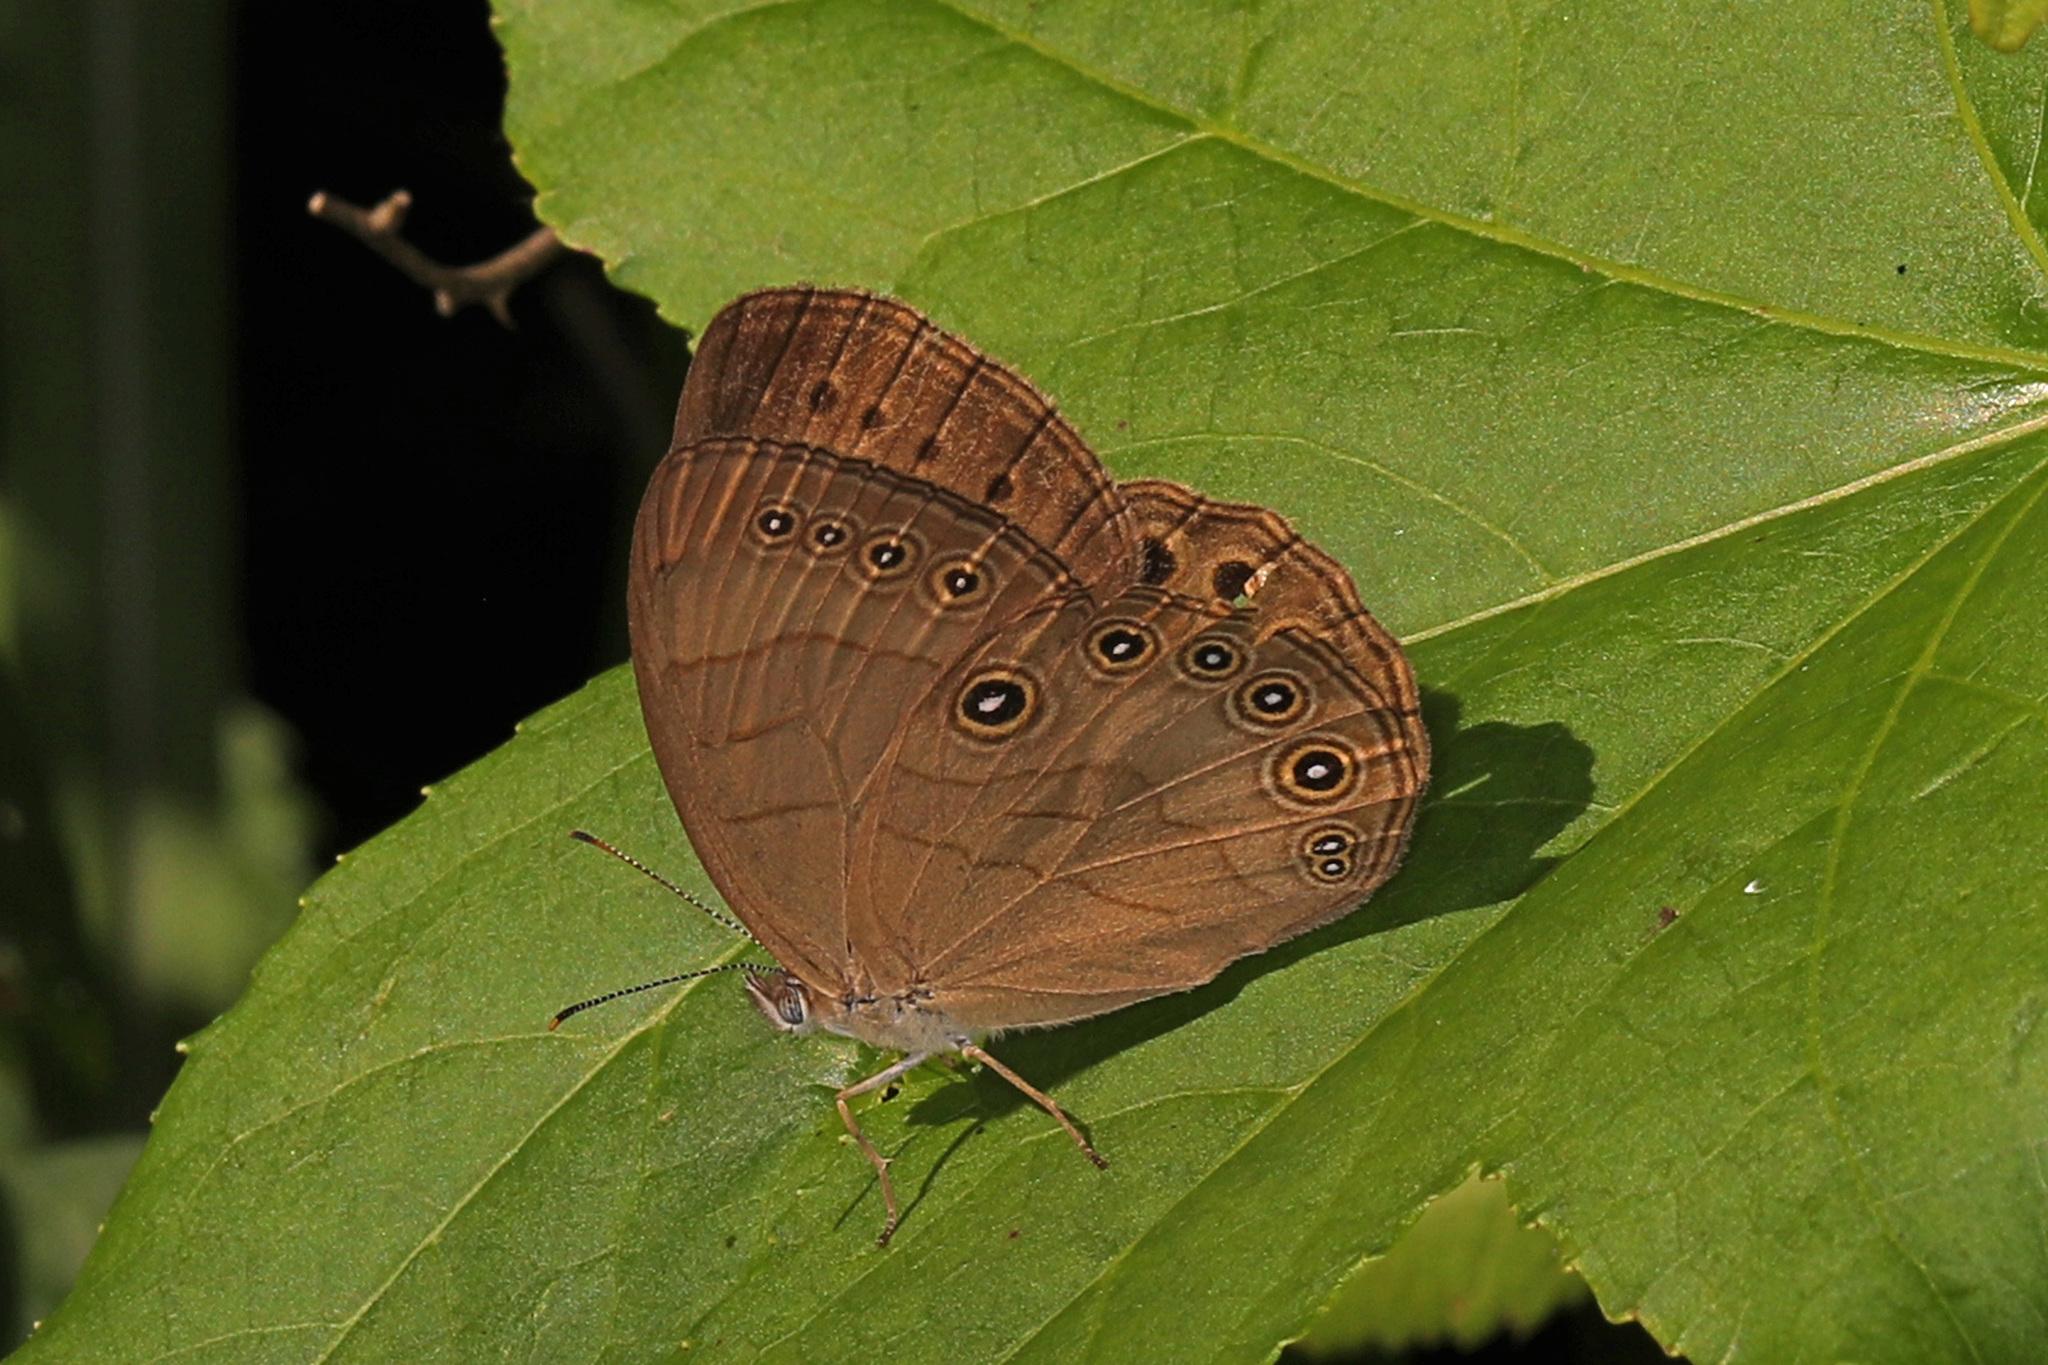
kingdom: Animalia
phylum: Arthropoda
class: Insecta
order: Lepidoptera
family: Nymphalidae
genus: Lethe
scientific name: Lethe eurydice
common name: Eyed brown
